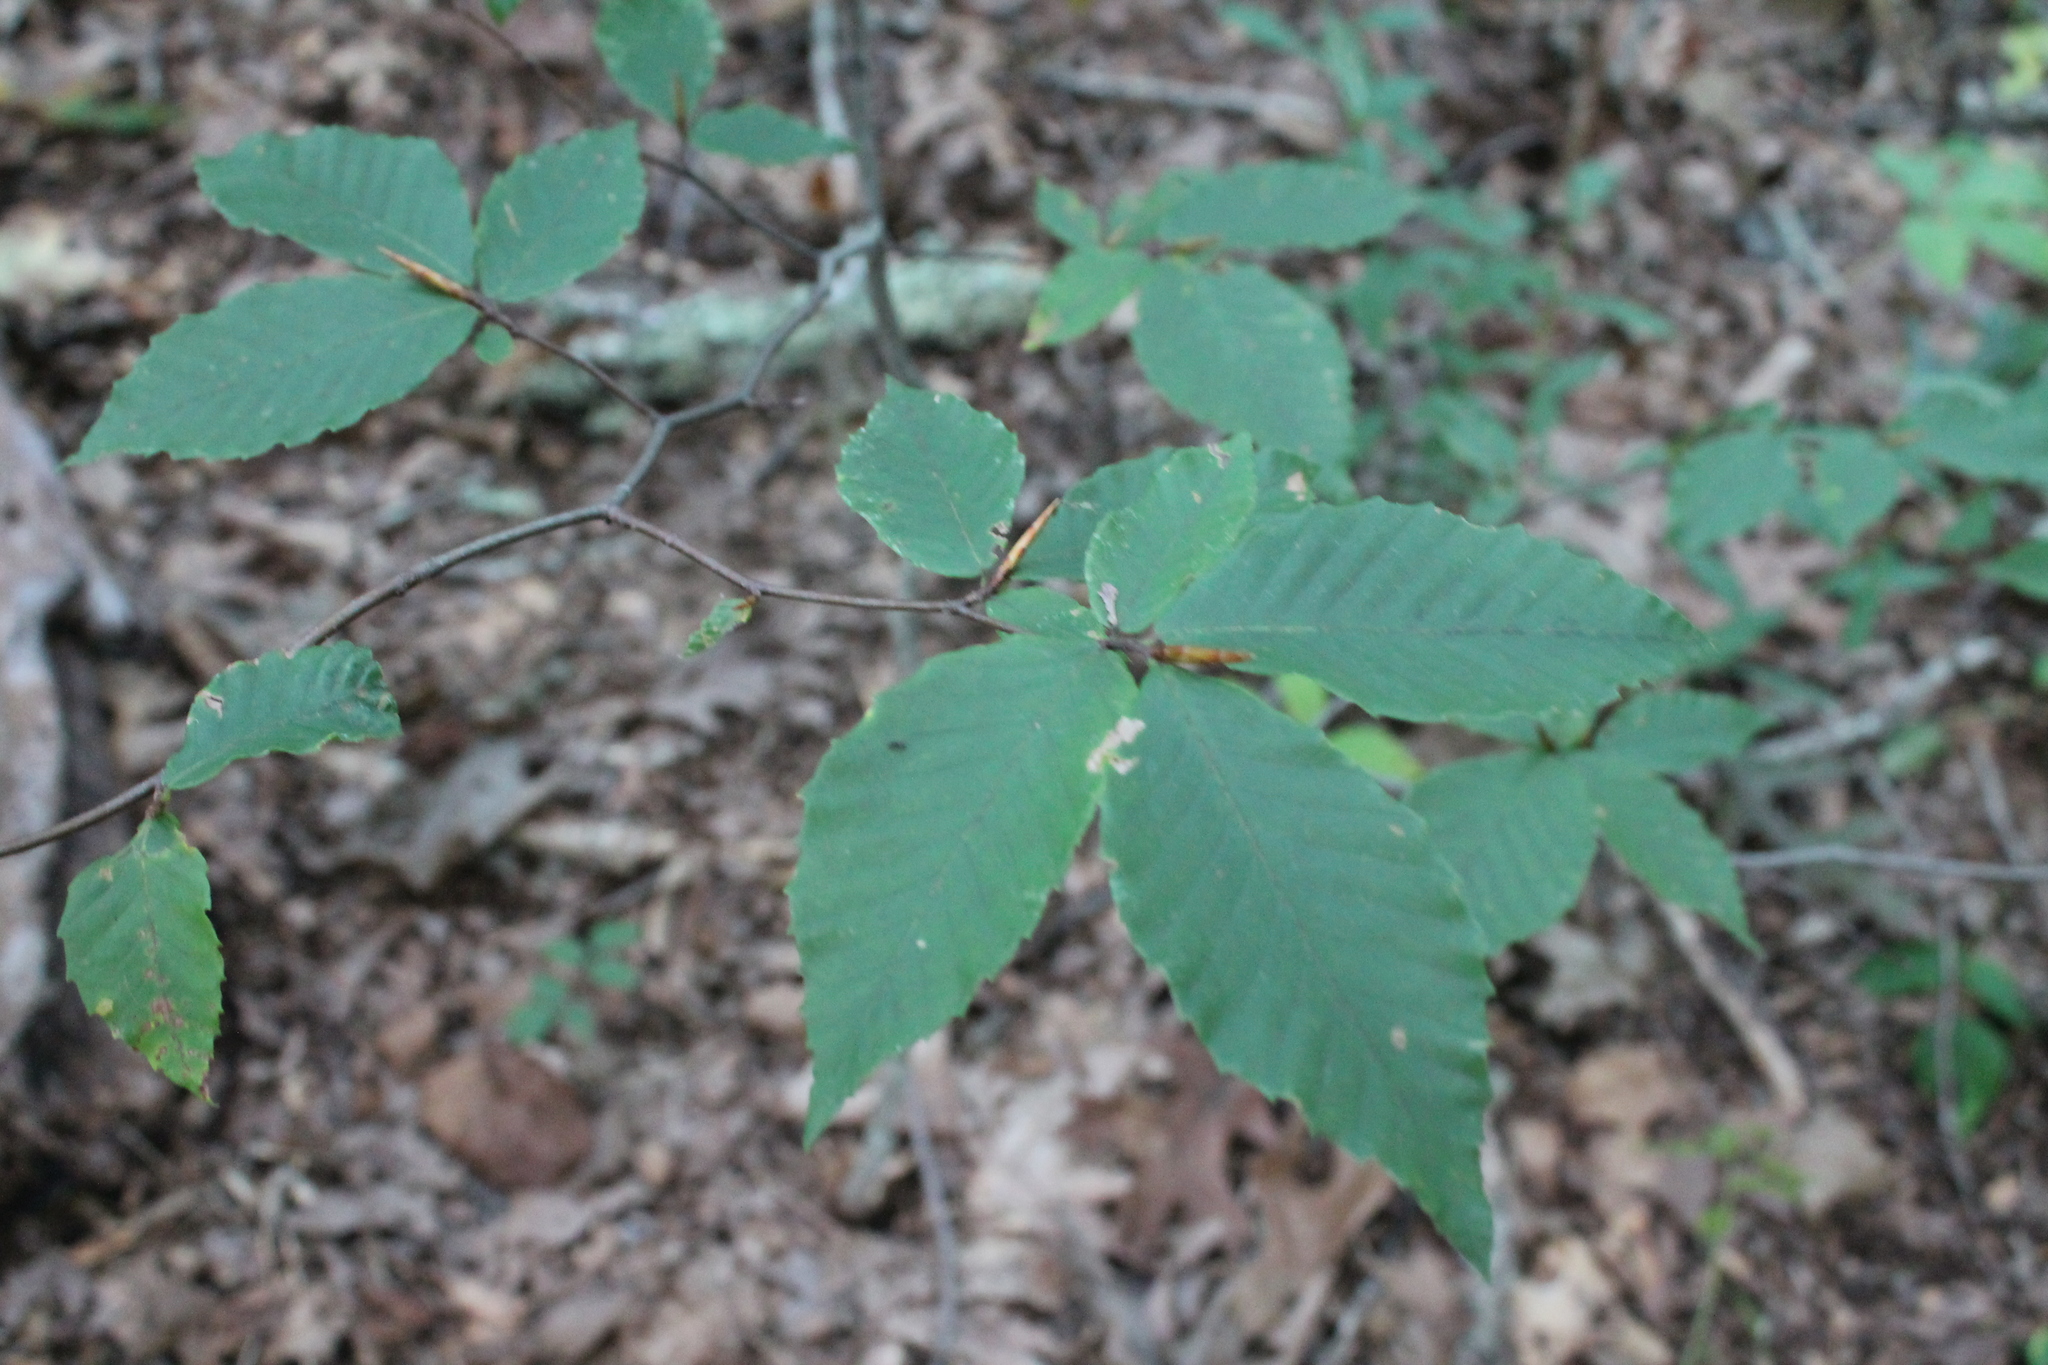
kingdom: Plantae
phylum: Tracheophyta
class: Magnoliopsida
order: Fagales
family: Fagaceae
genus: Fagus
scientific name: Fagus grandifolia
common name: American beech
